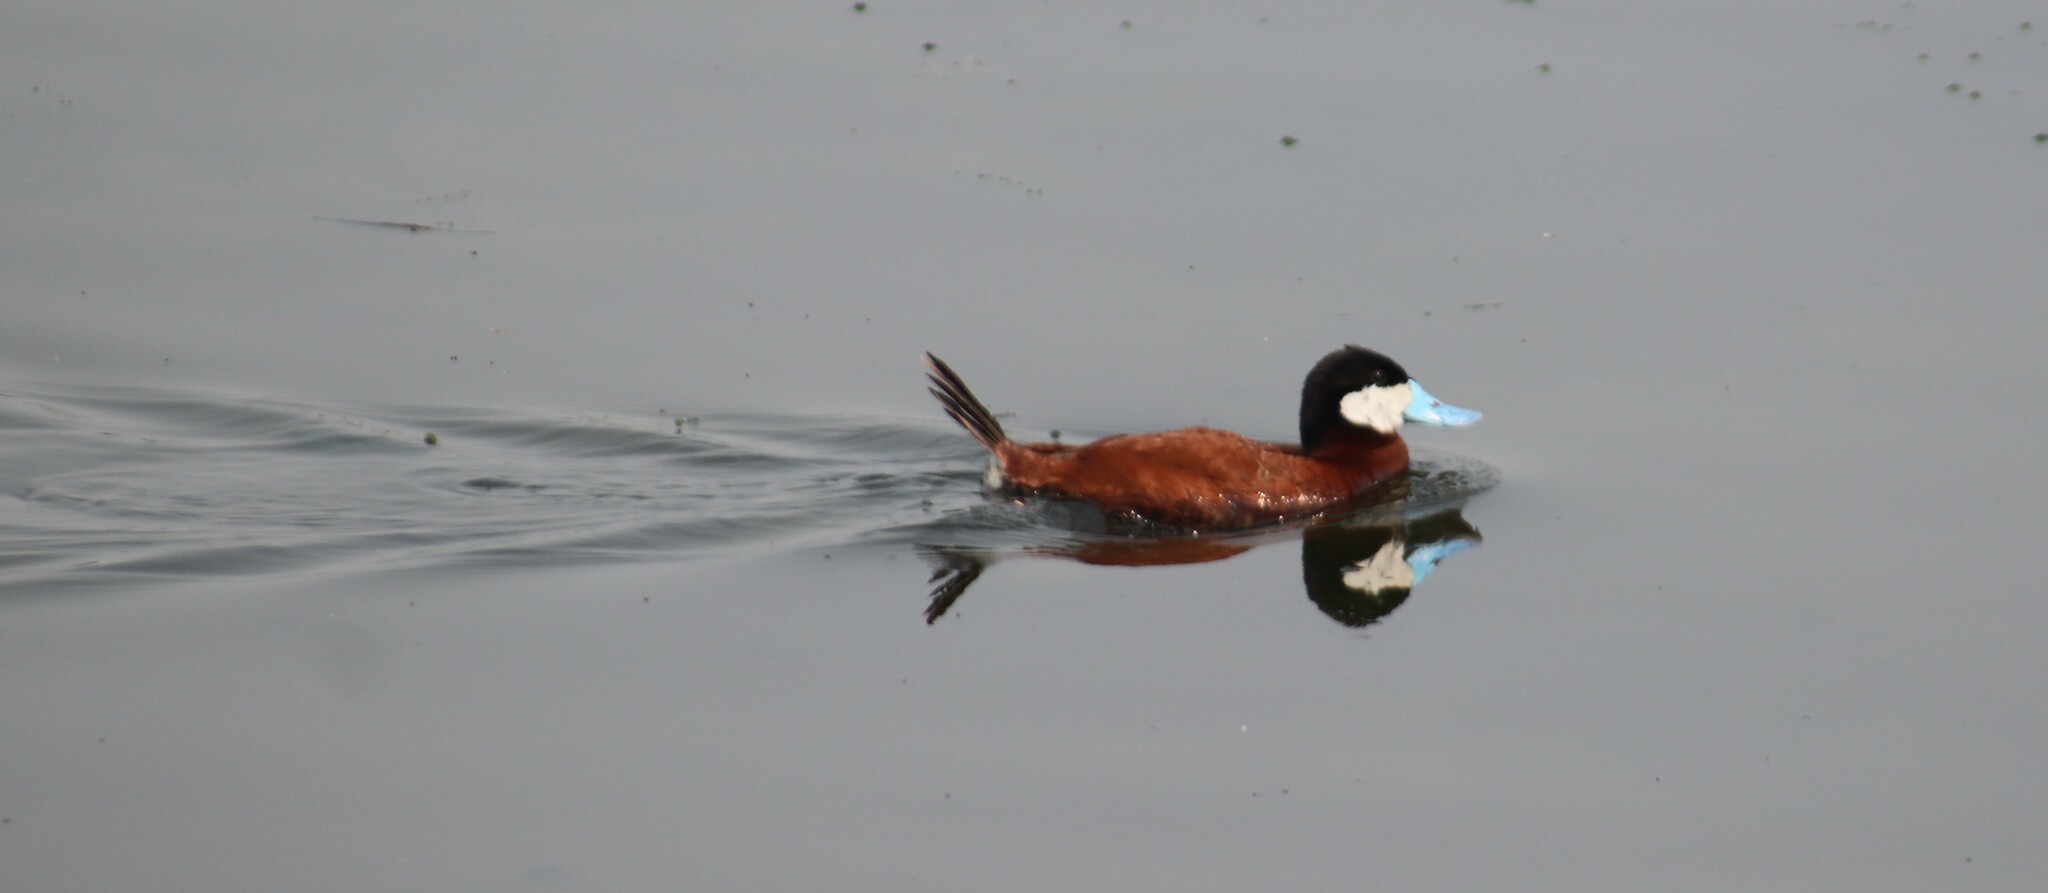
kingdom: Animalia
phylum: Chordata
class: Aves
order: Anseriformes
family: Anatidae
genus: Oxyura
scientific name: Oxyura jamaicensis
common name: Ruddy duck
